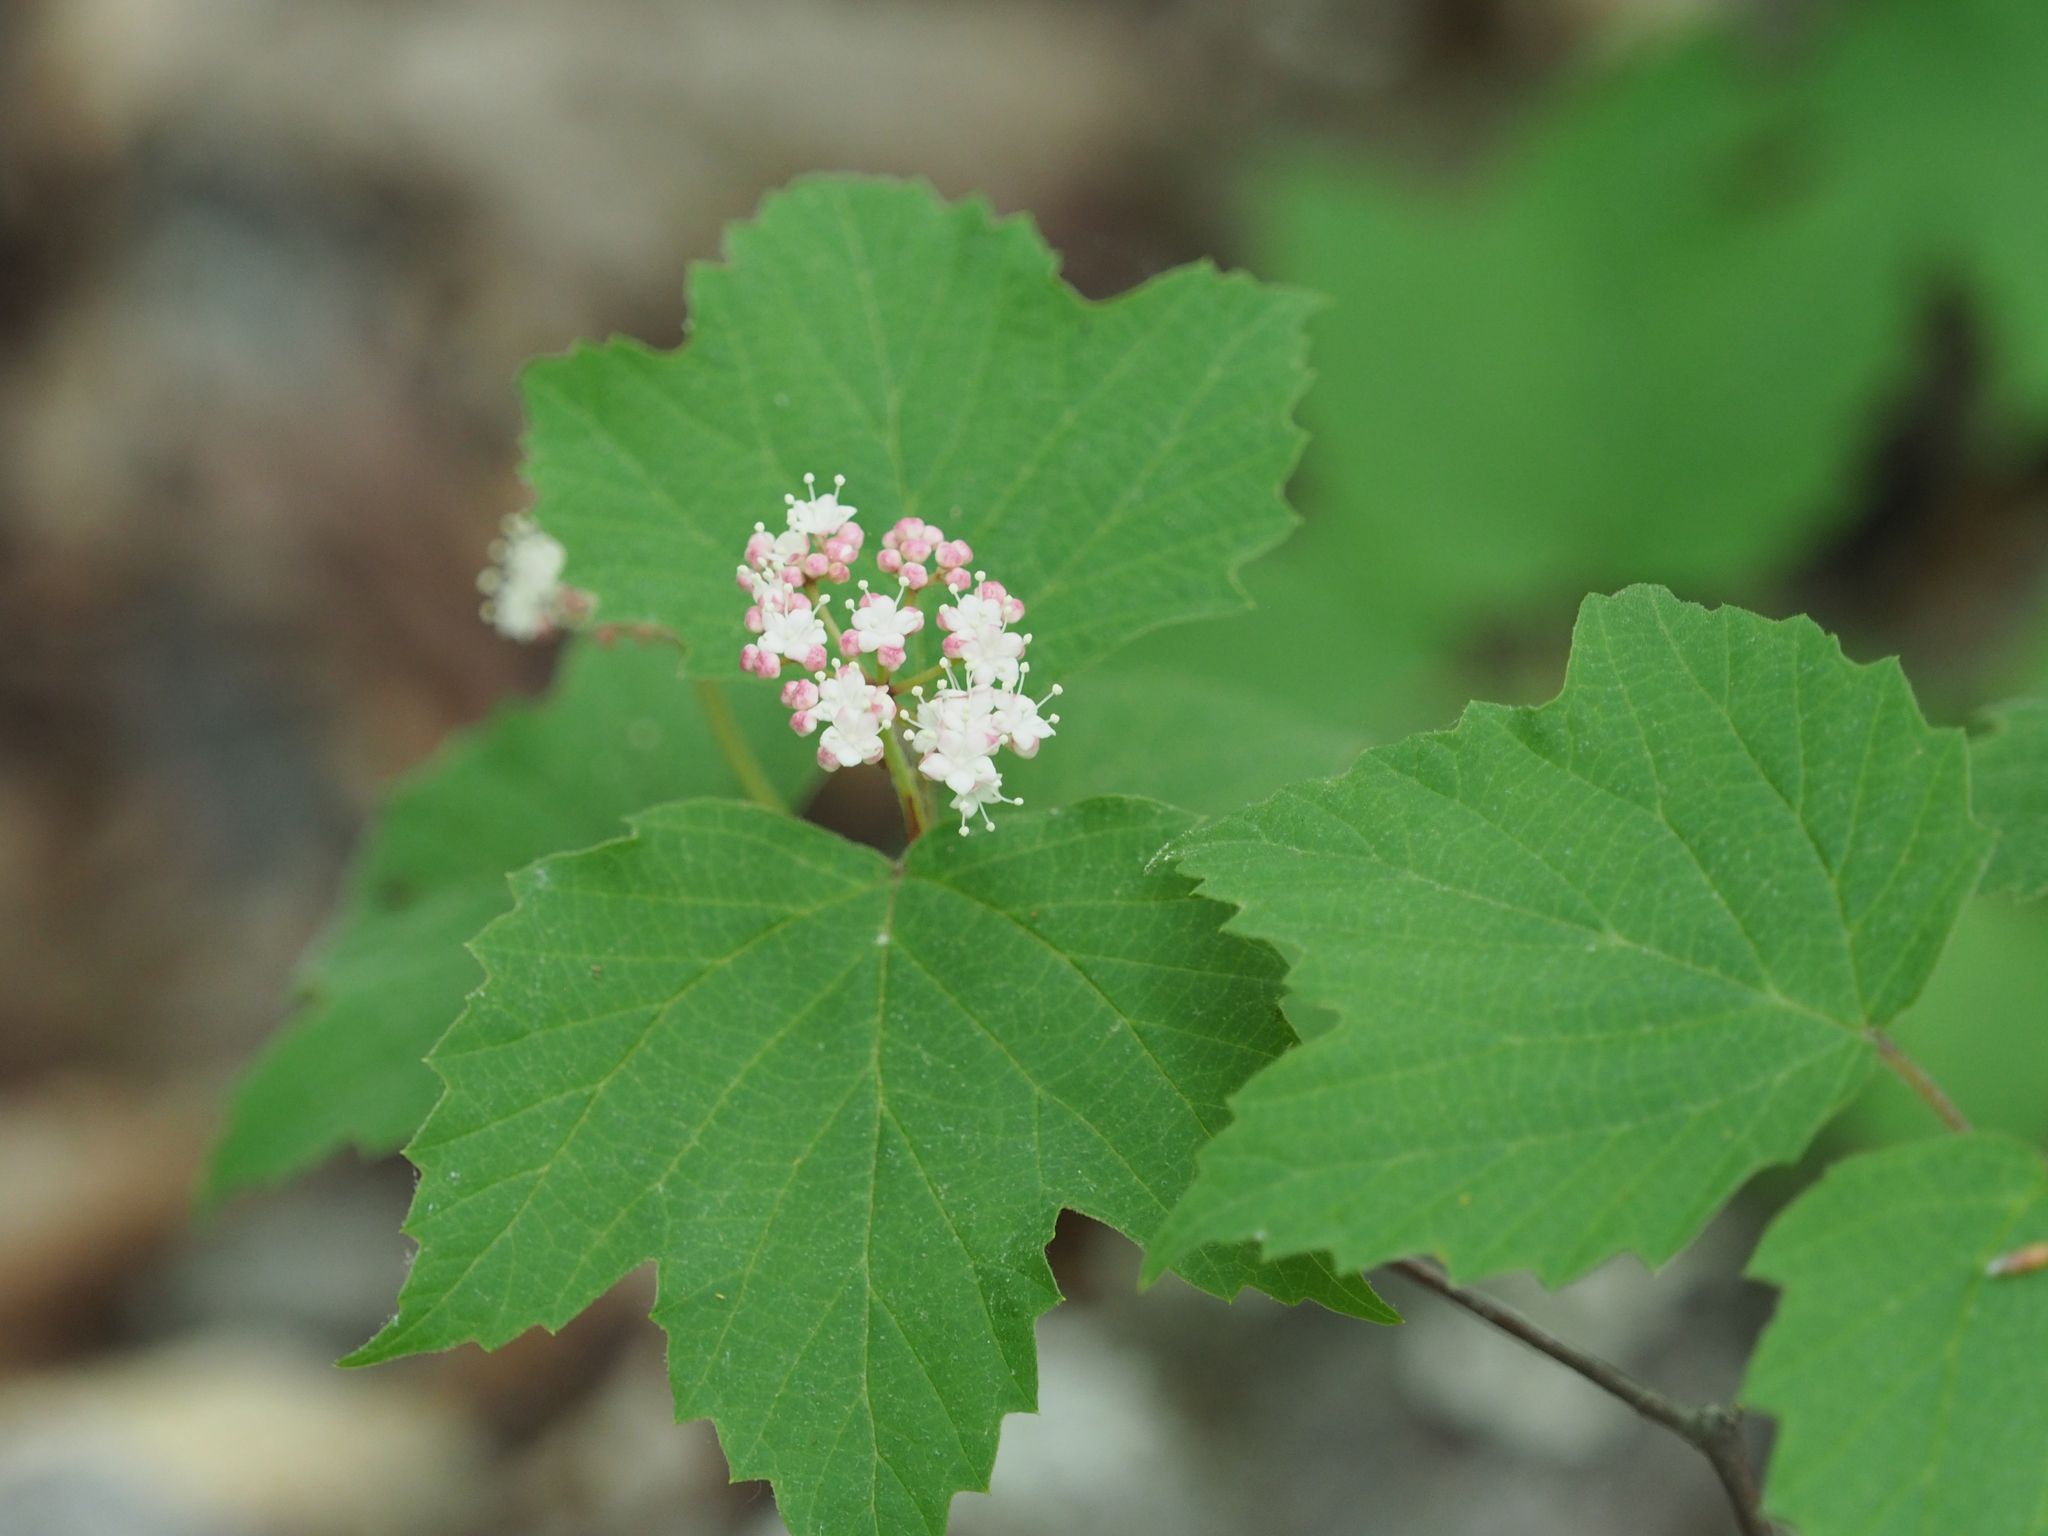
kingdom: Plantae
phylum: Tracheophyta
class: Magnoliopsida
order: Dipsacales
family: Viburnaceae
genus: Viburnum
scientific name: Viburnum acerifolium
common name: Dockmackie
